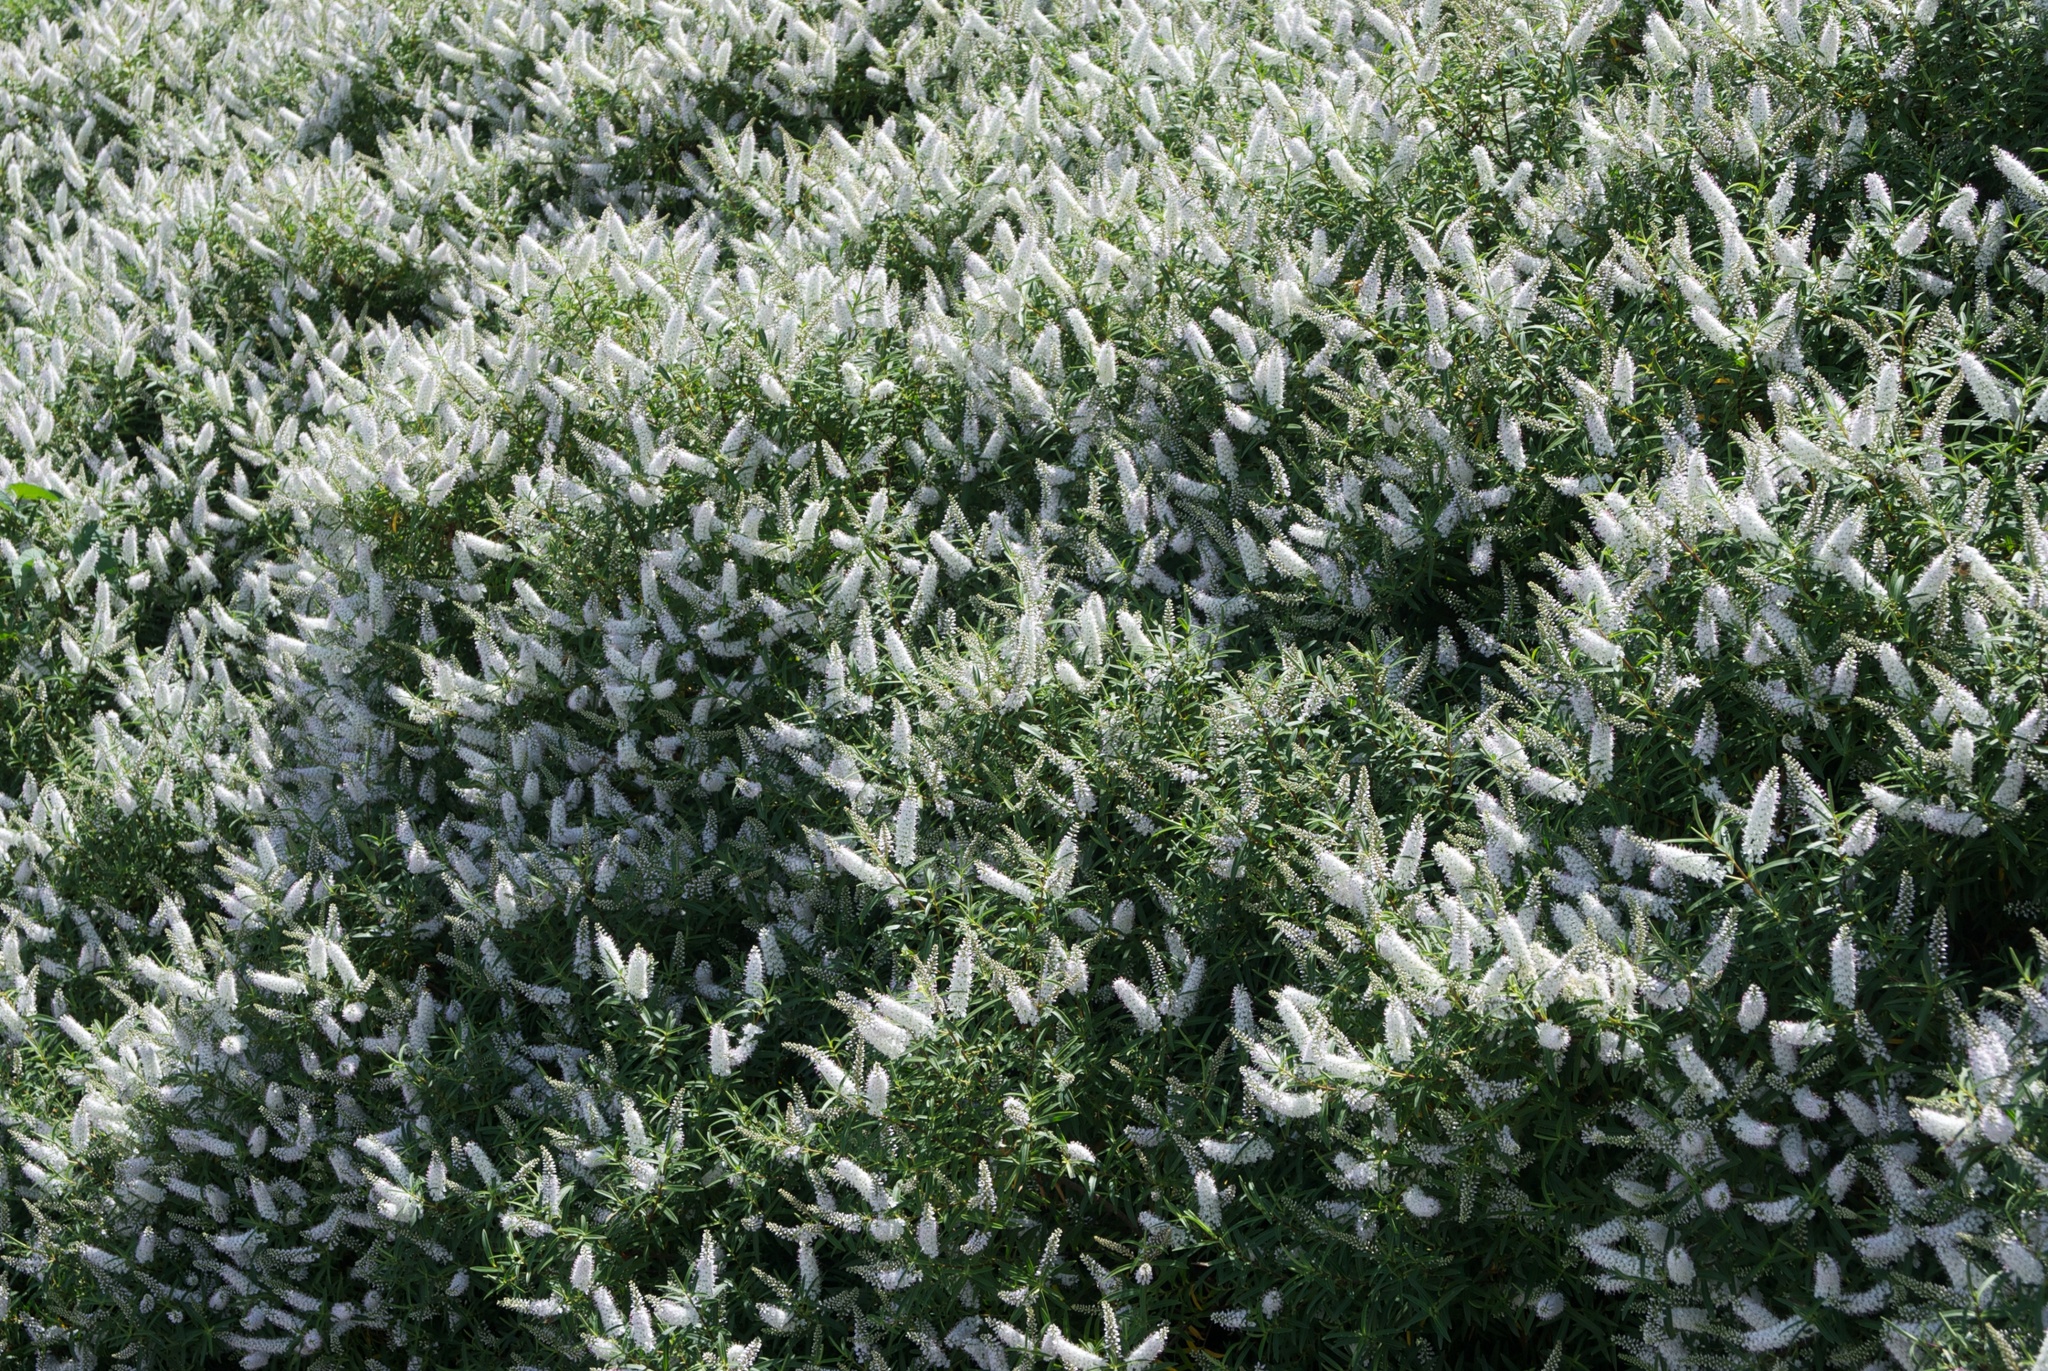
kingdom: Plantae
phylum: Tracheophyta
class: Magnoliopsida
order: Lamiales
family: Plantaginaceae
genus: Veronica
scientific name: Veronica strictissima
